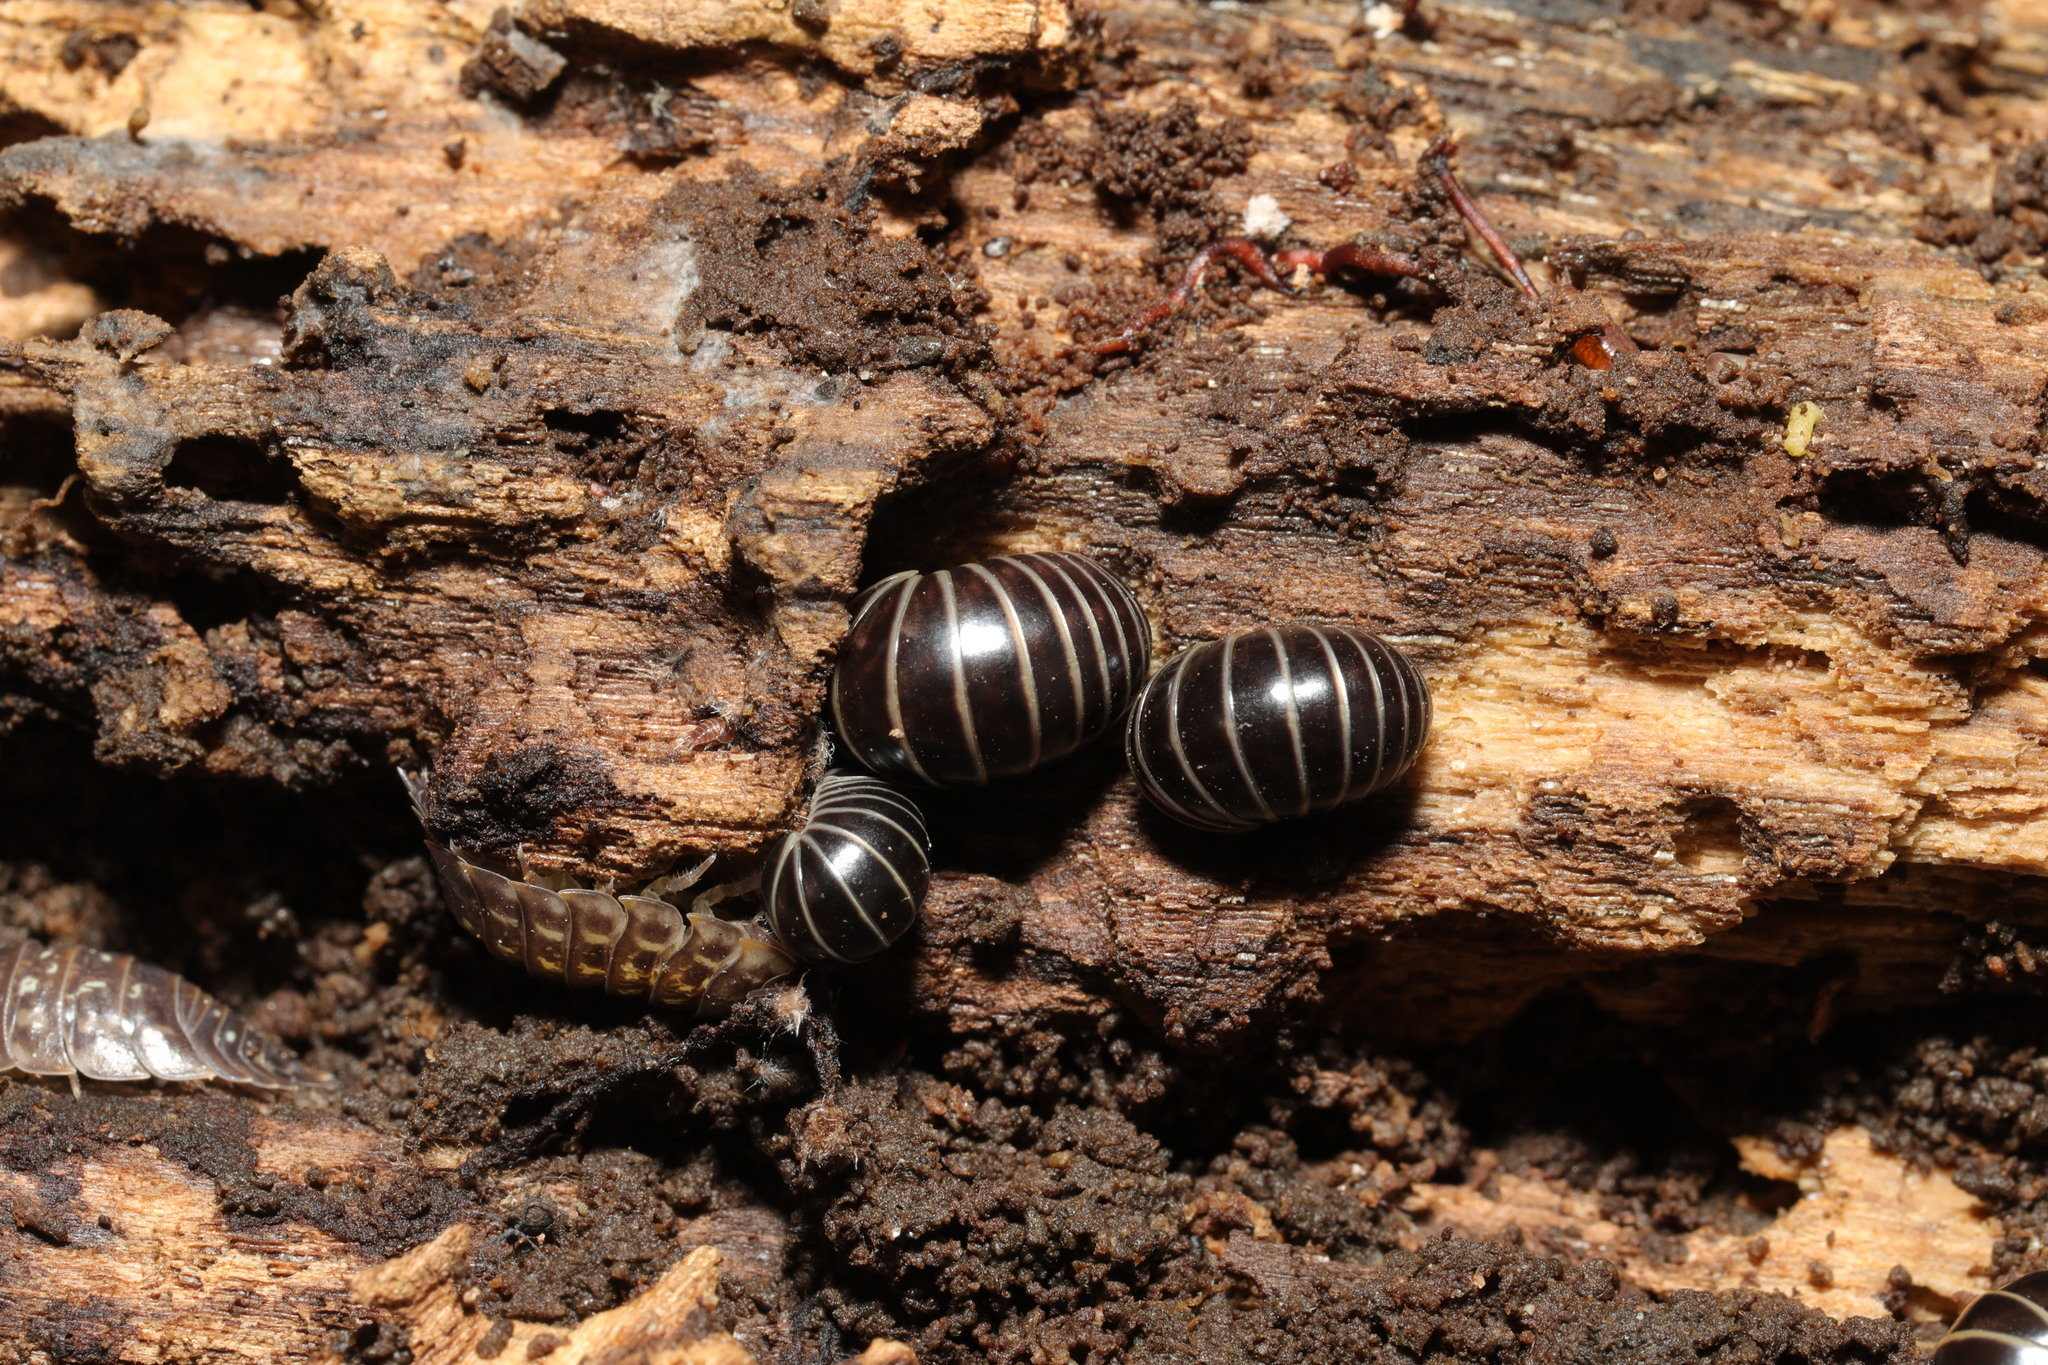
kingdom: Animalia
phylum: Arthropoda
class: Diplopoda
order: Glomerida
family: Glomeridae
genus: Glomeris
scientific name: Glomeris marginata
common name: Bordered pill millipede
